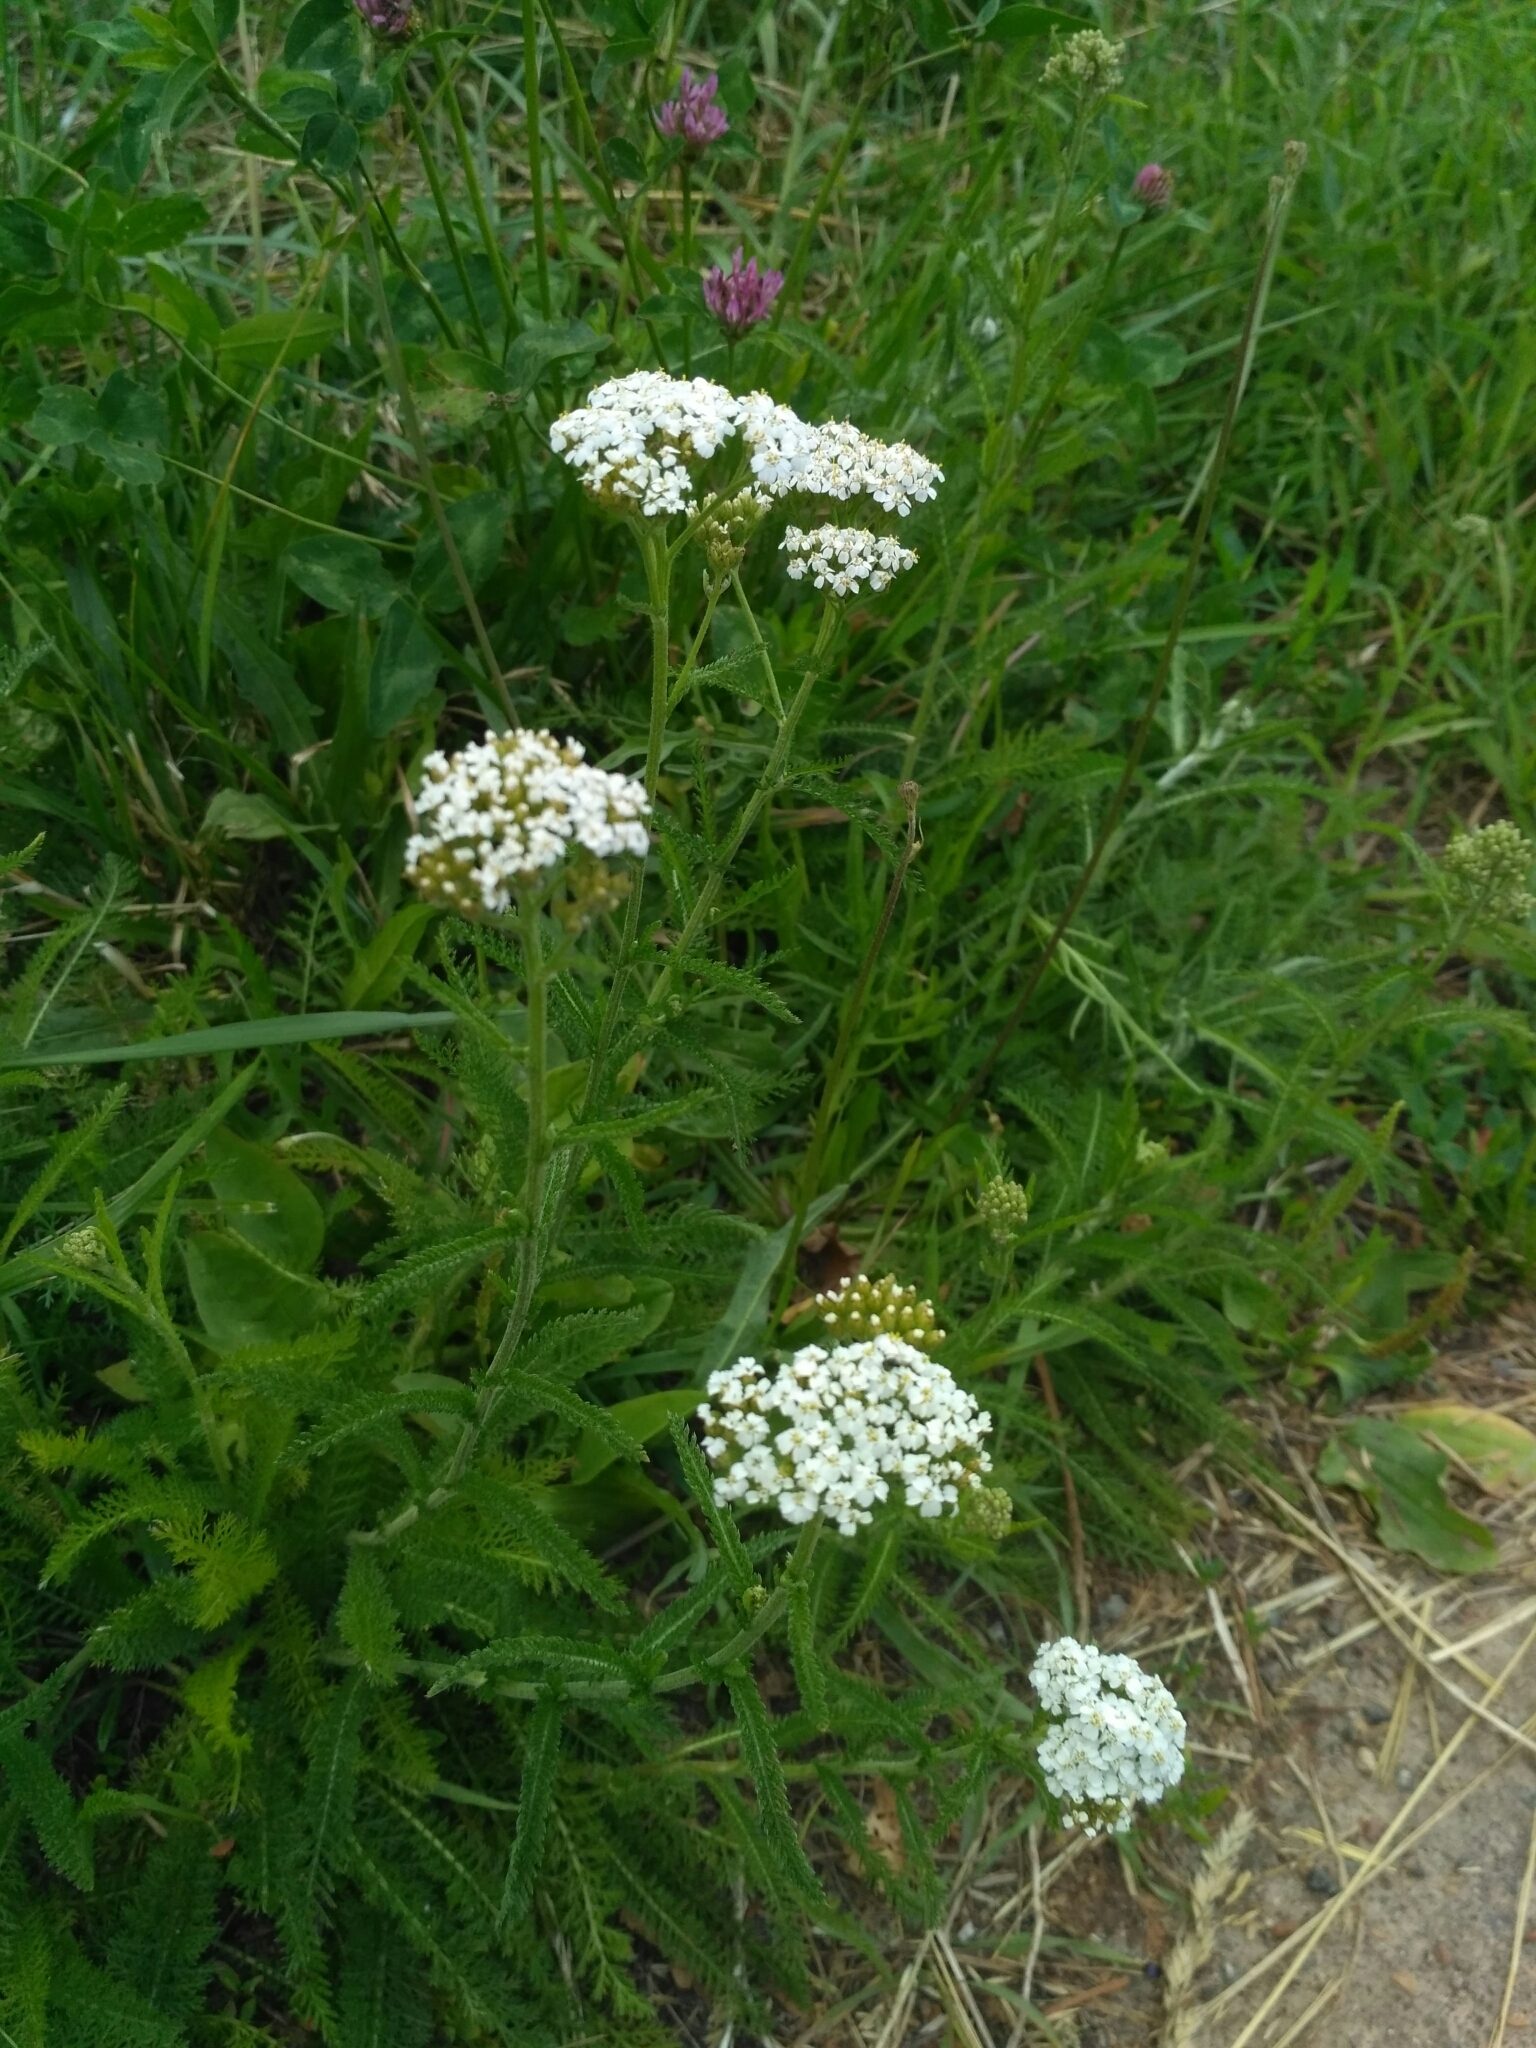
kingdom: Plantae
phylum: Tracheophyta
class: Magnoliopsida
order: Asterales
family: Asteraceae
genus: Achillea
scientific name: Achillea millefolium
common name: Yarrow
